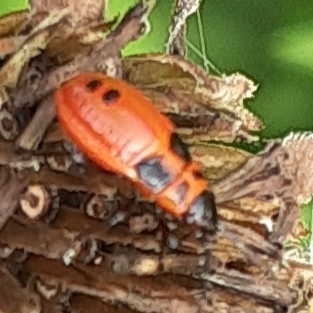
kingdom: Animalia
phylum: Arthropoda
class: Insecta
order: Hemiptera
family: Lygaeidae
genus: Lygaeus
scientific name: Lygaeus turcicus
